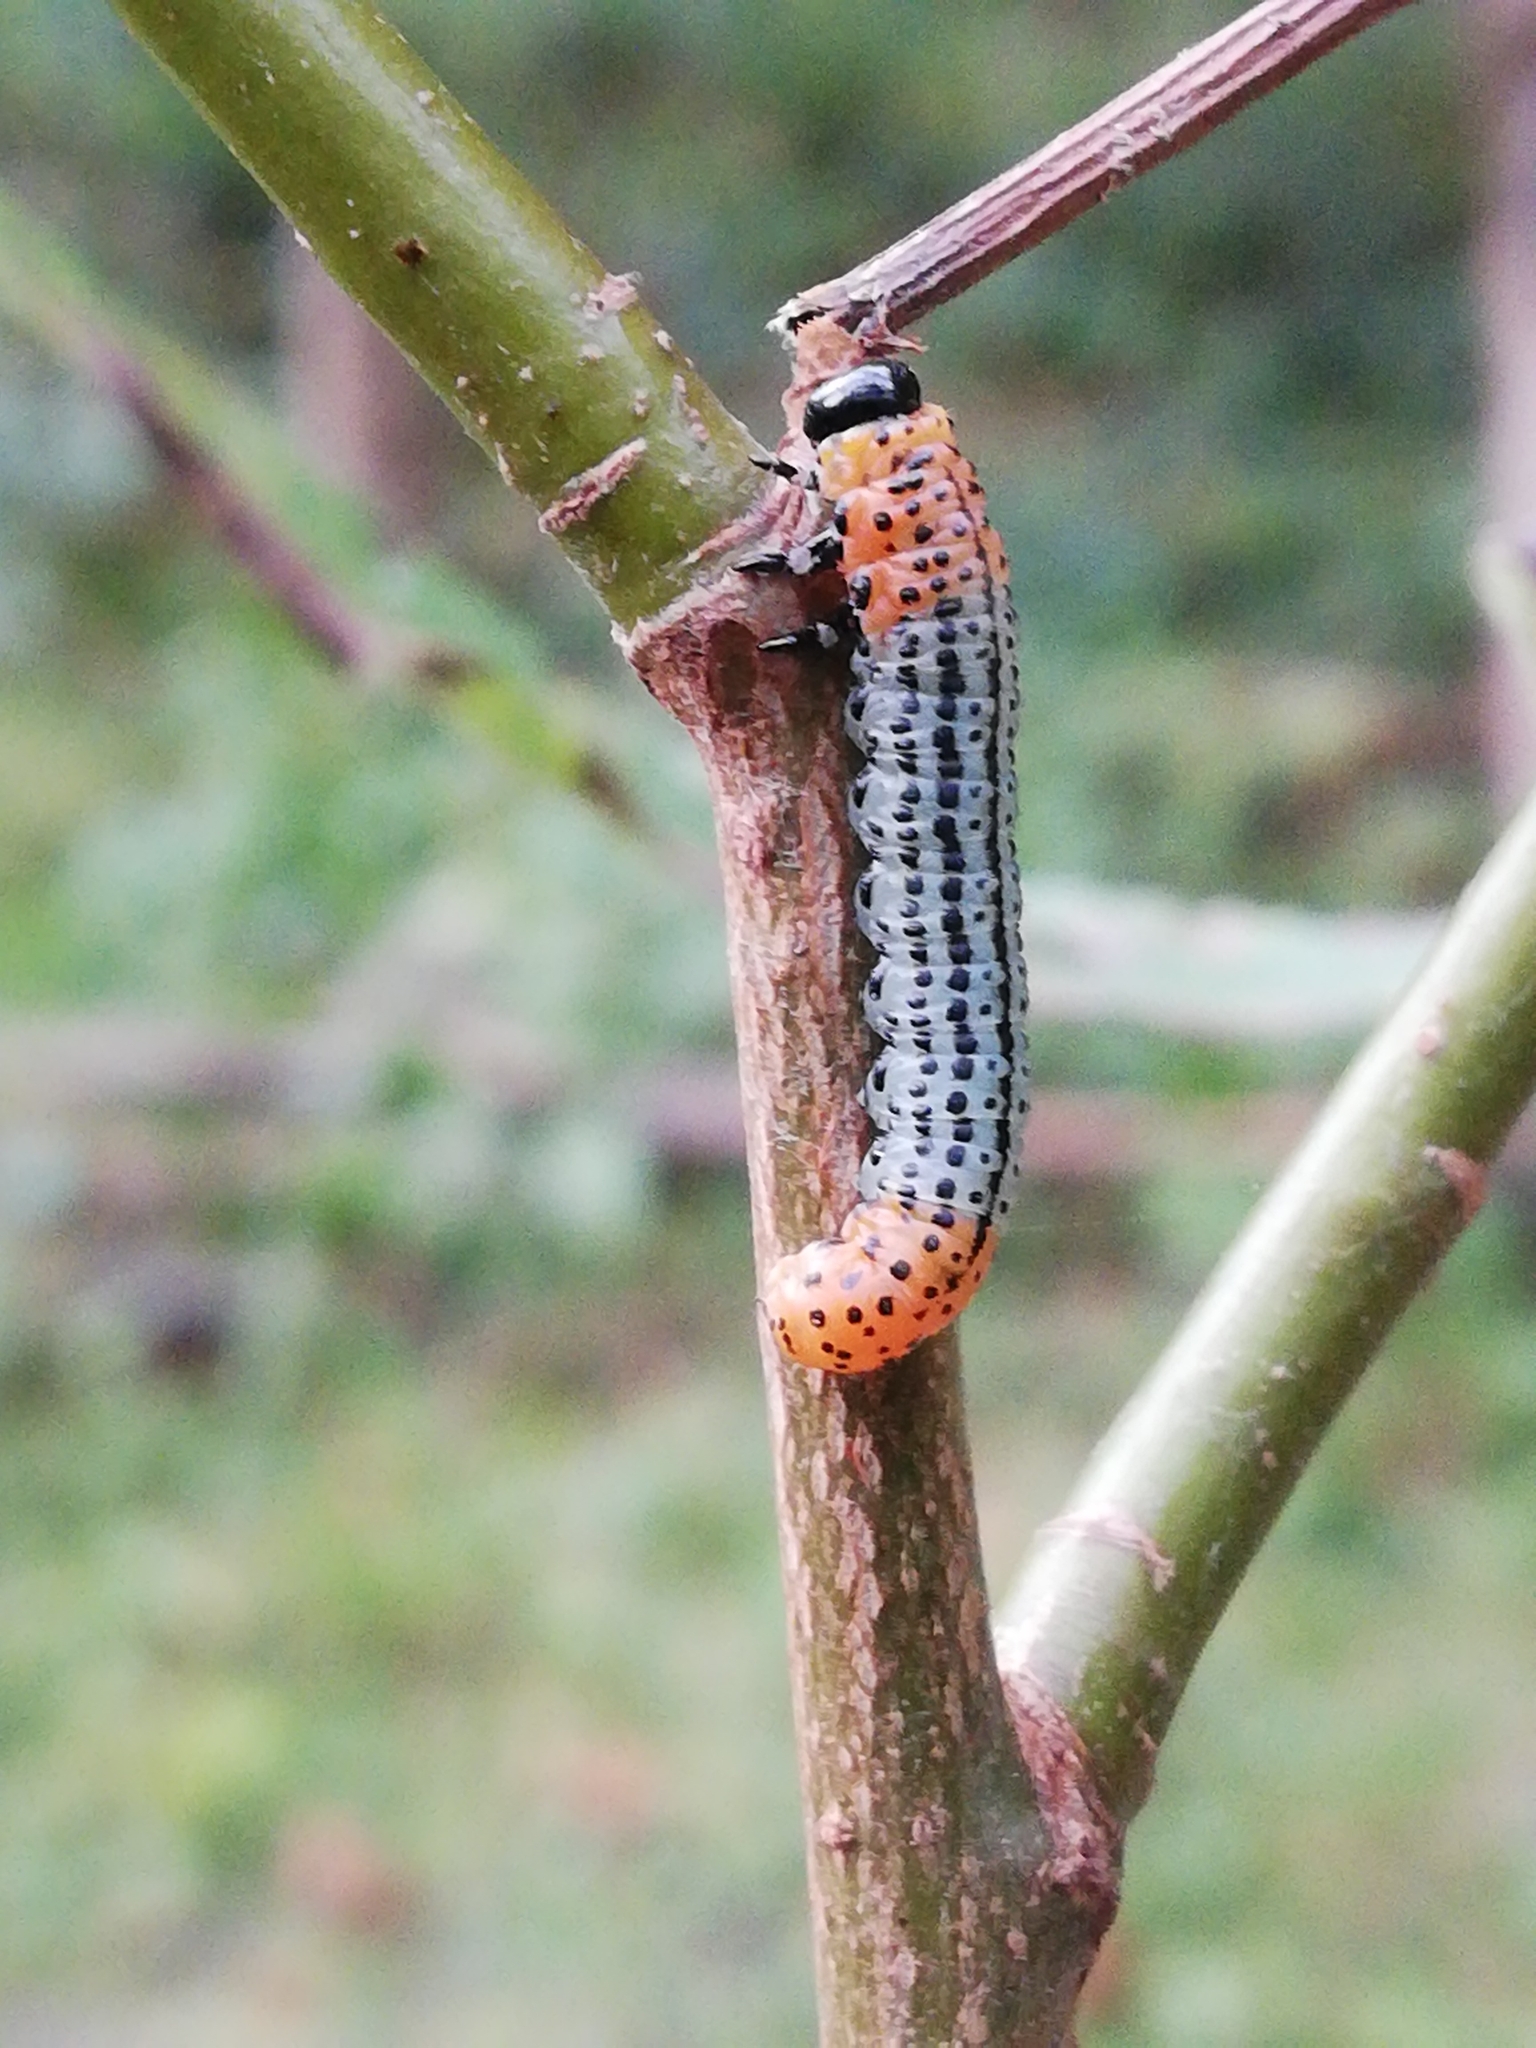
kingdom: Animalia
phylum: Arthropoda
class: Insecta
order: Hymenoptera
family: Tenthredinidae
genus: Nematus
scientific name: Nematus salicis
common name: Willow sawfly
